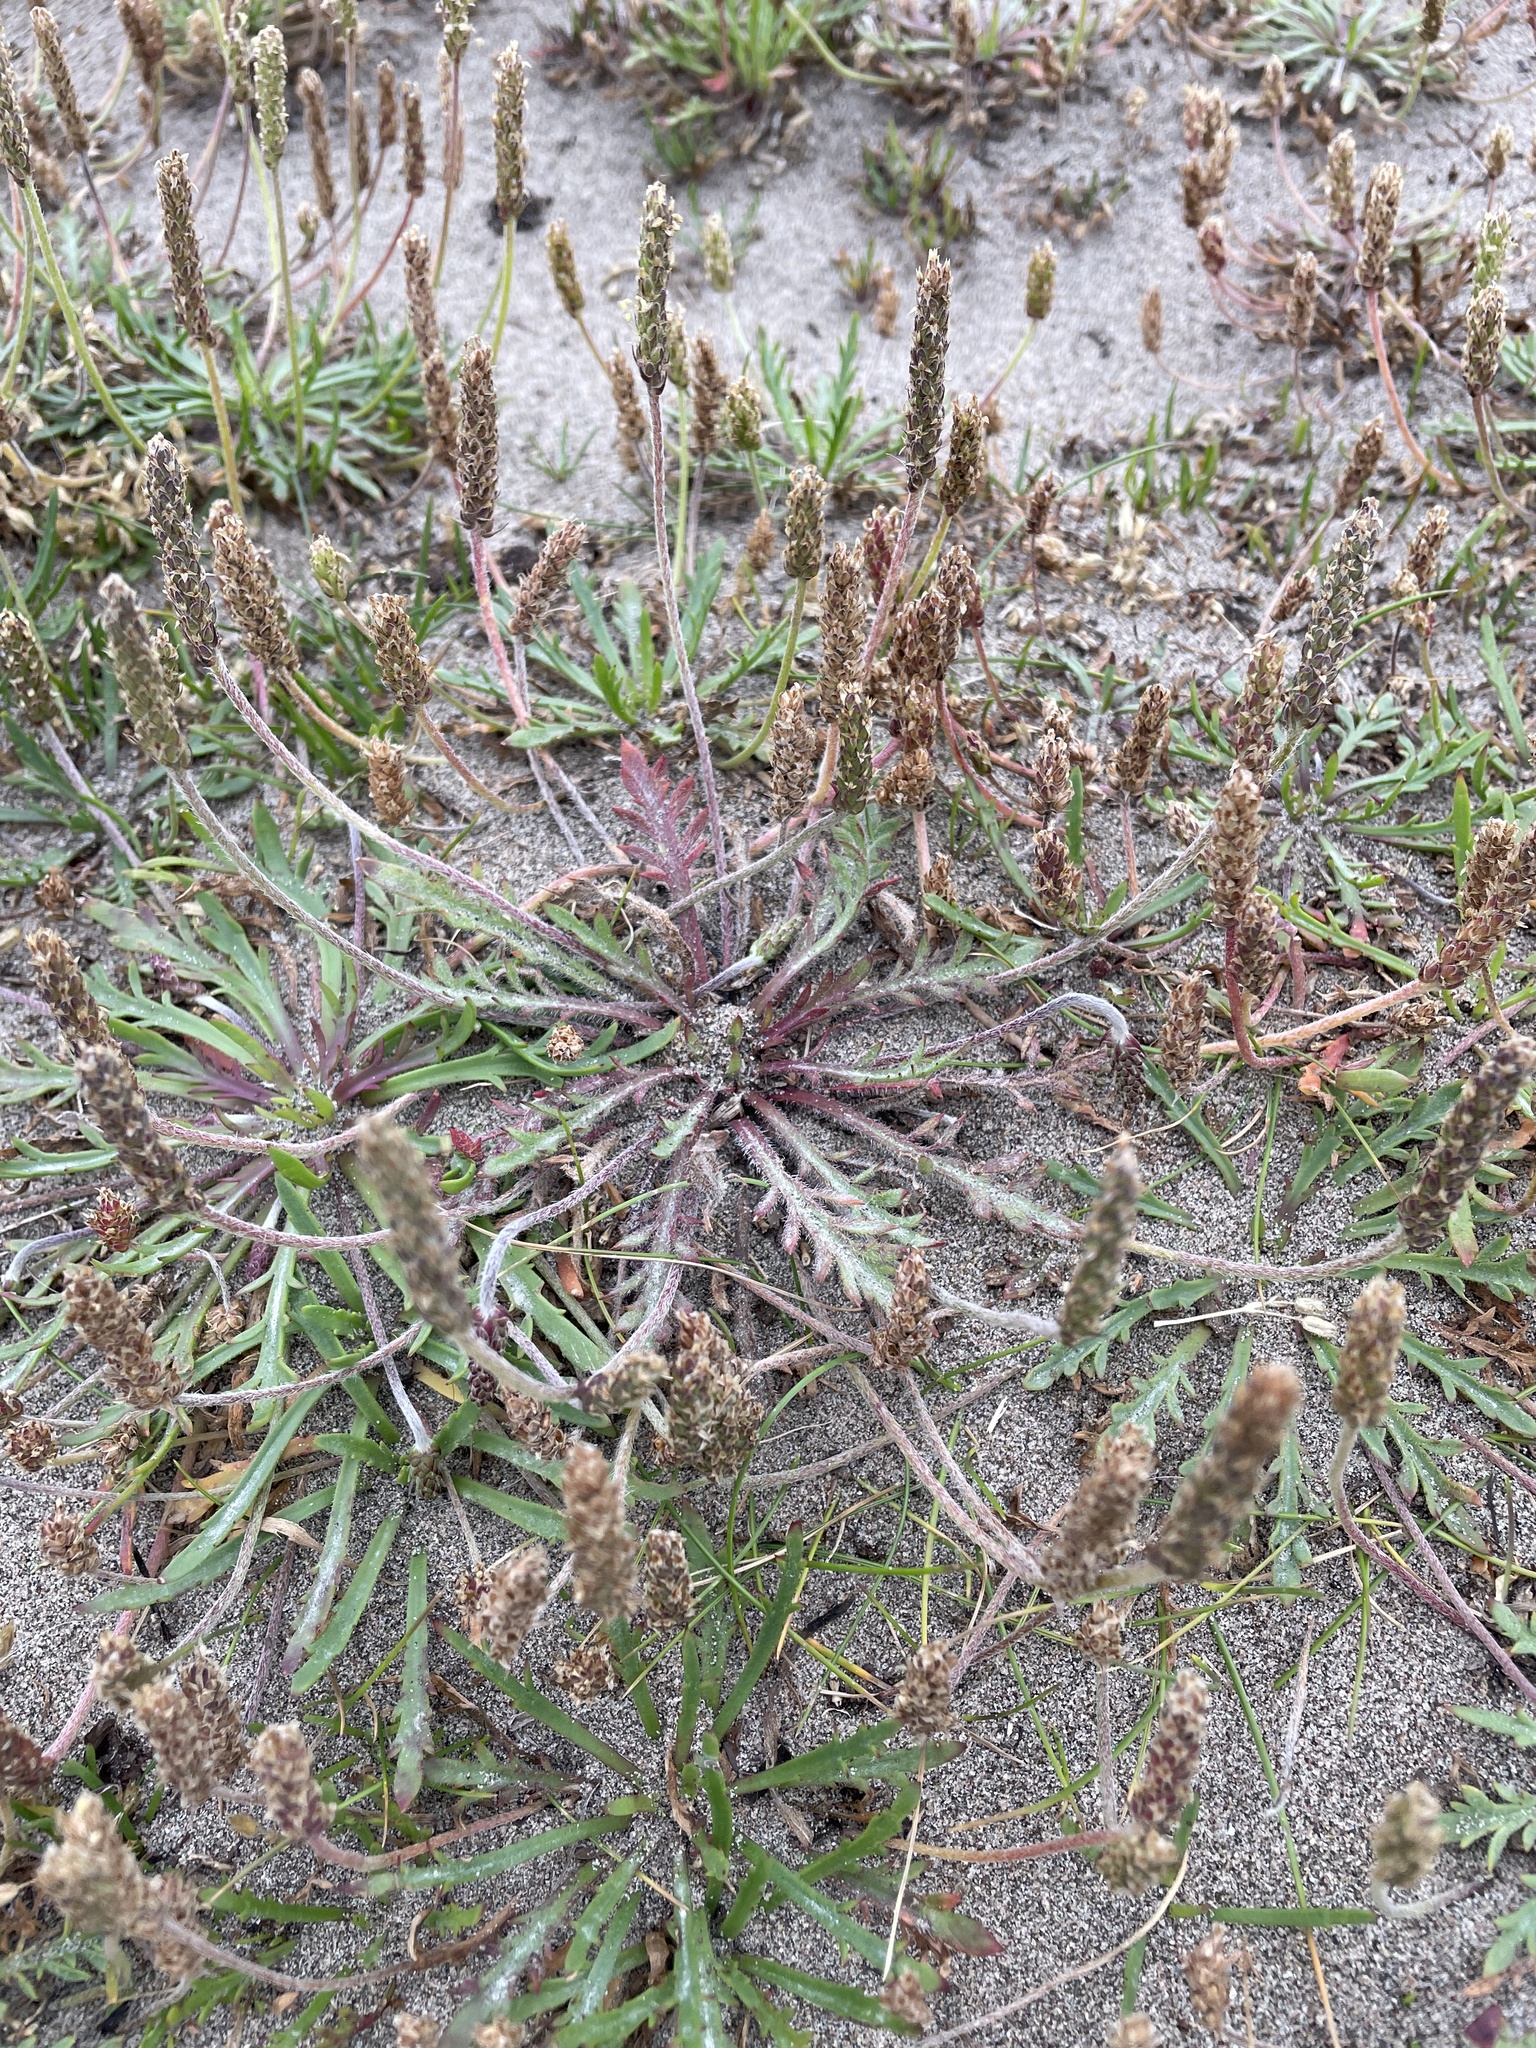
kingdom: Plantae
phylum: Tracheophyta
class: Magnoliopsida
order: Lamiales
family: Plantaginaceae
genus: Plantago
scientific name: Plantago coronopus
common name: Buck's-horn plantain
